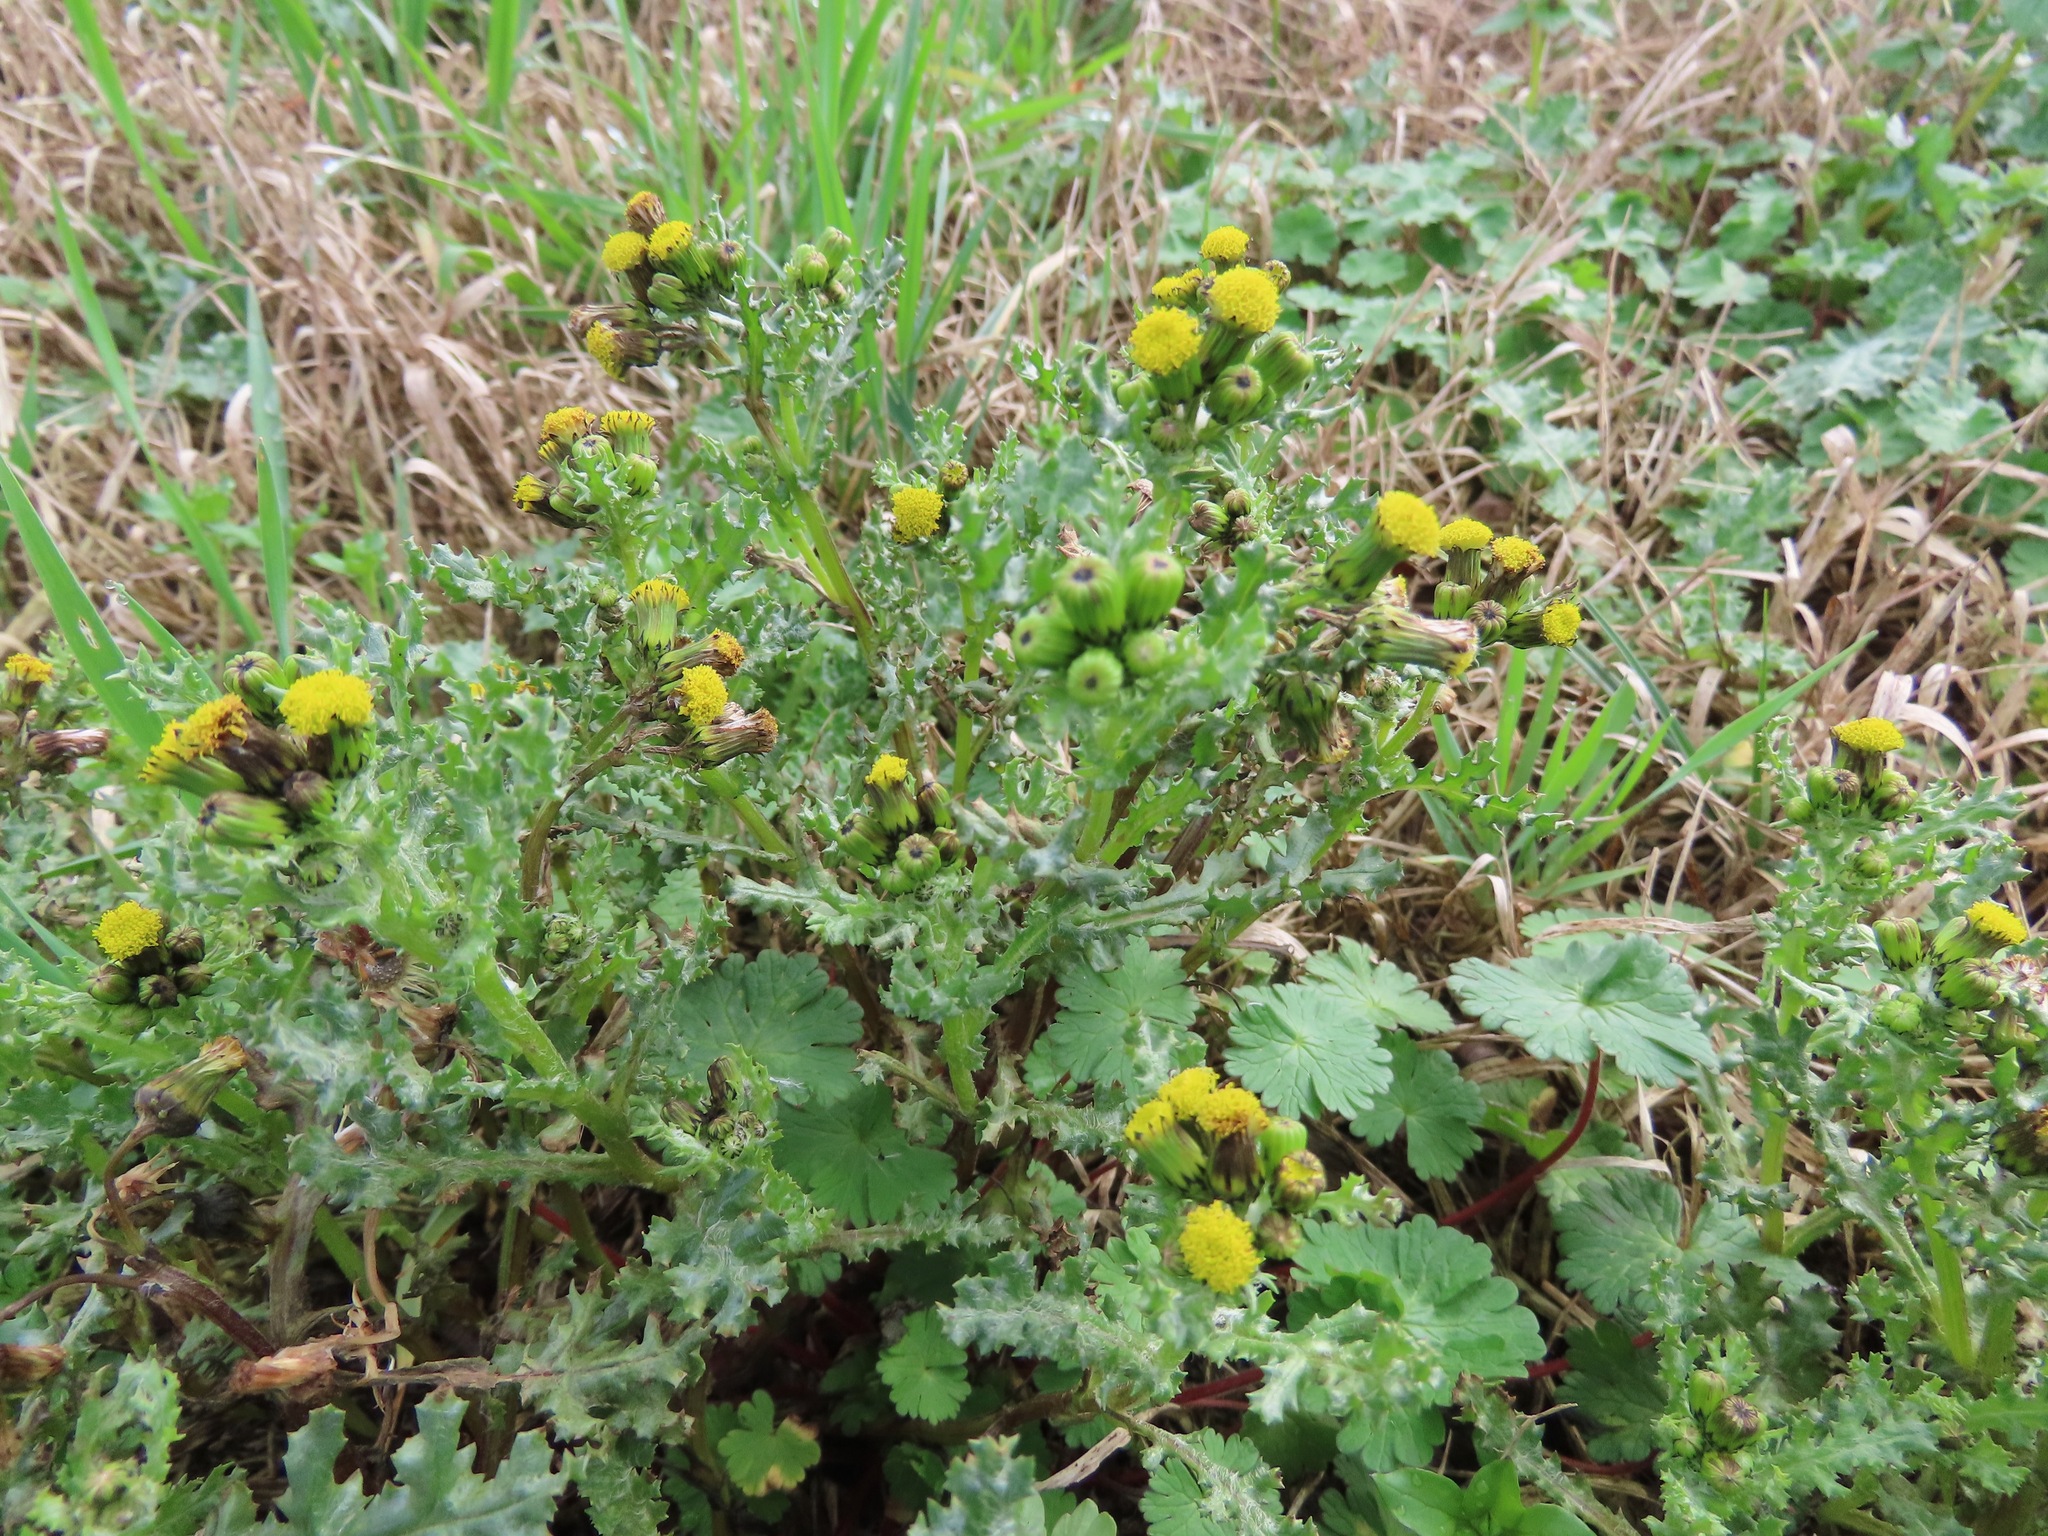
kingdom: Plantae
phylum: Tracheophyta
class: Magnoliopsida
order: Asterales
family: Asteraceae
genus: Senecio
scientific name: Senecio vulgaris
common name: Old-man-in-the-spring
